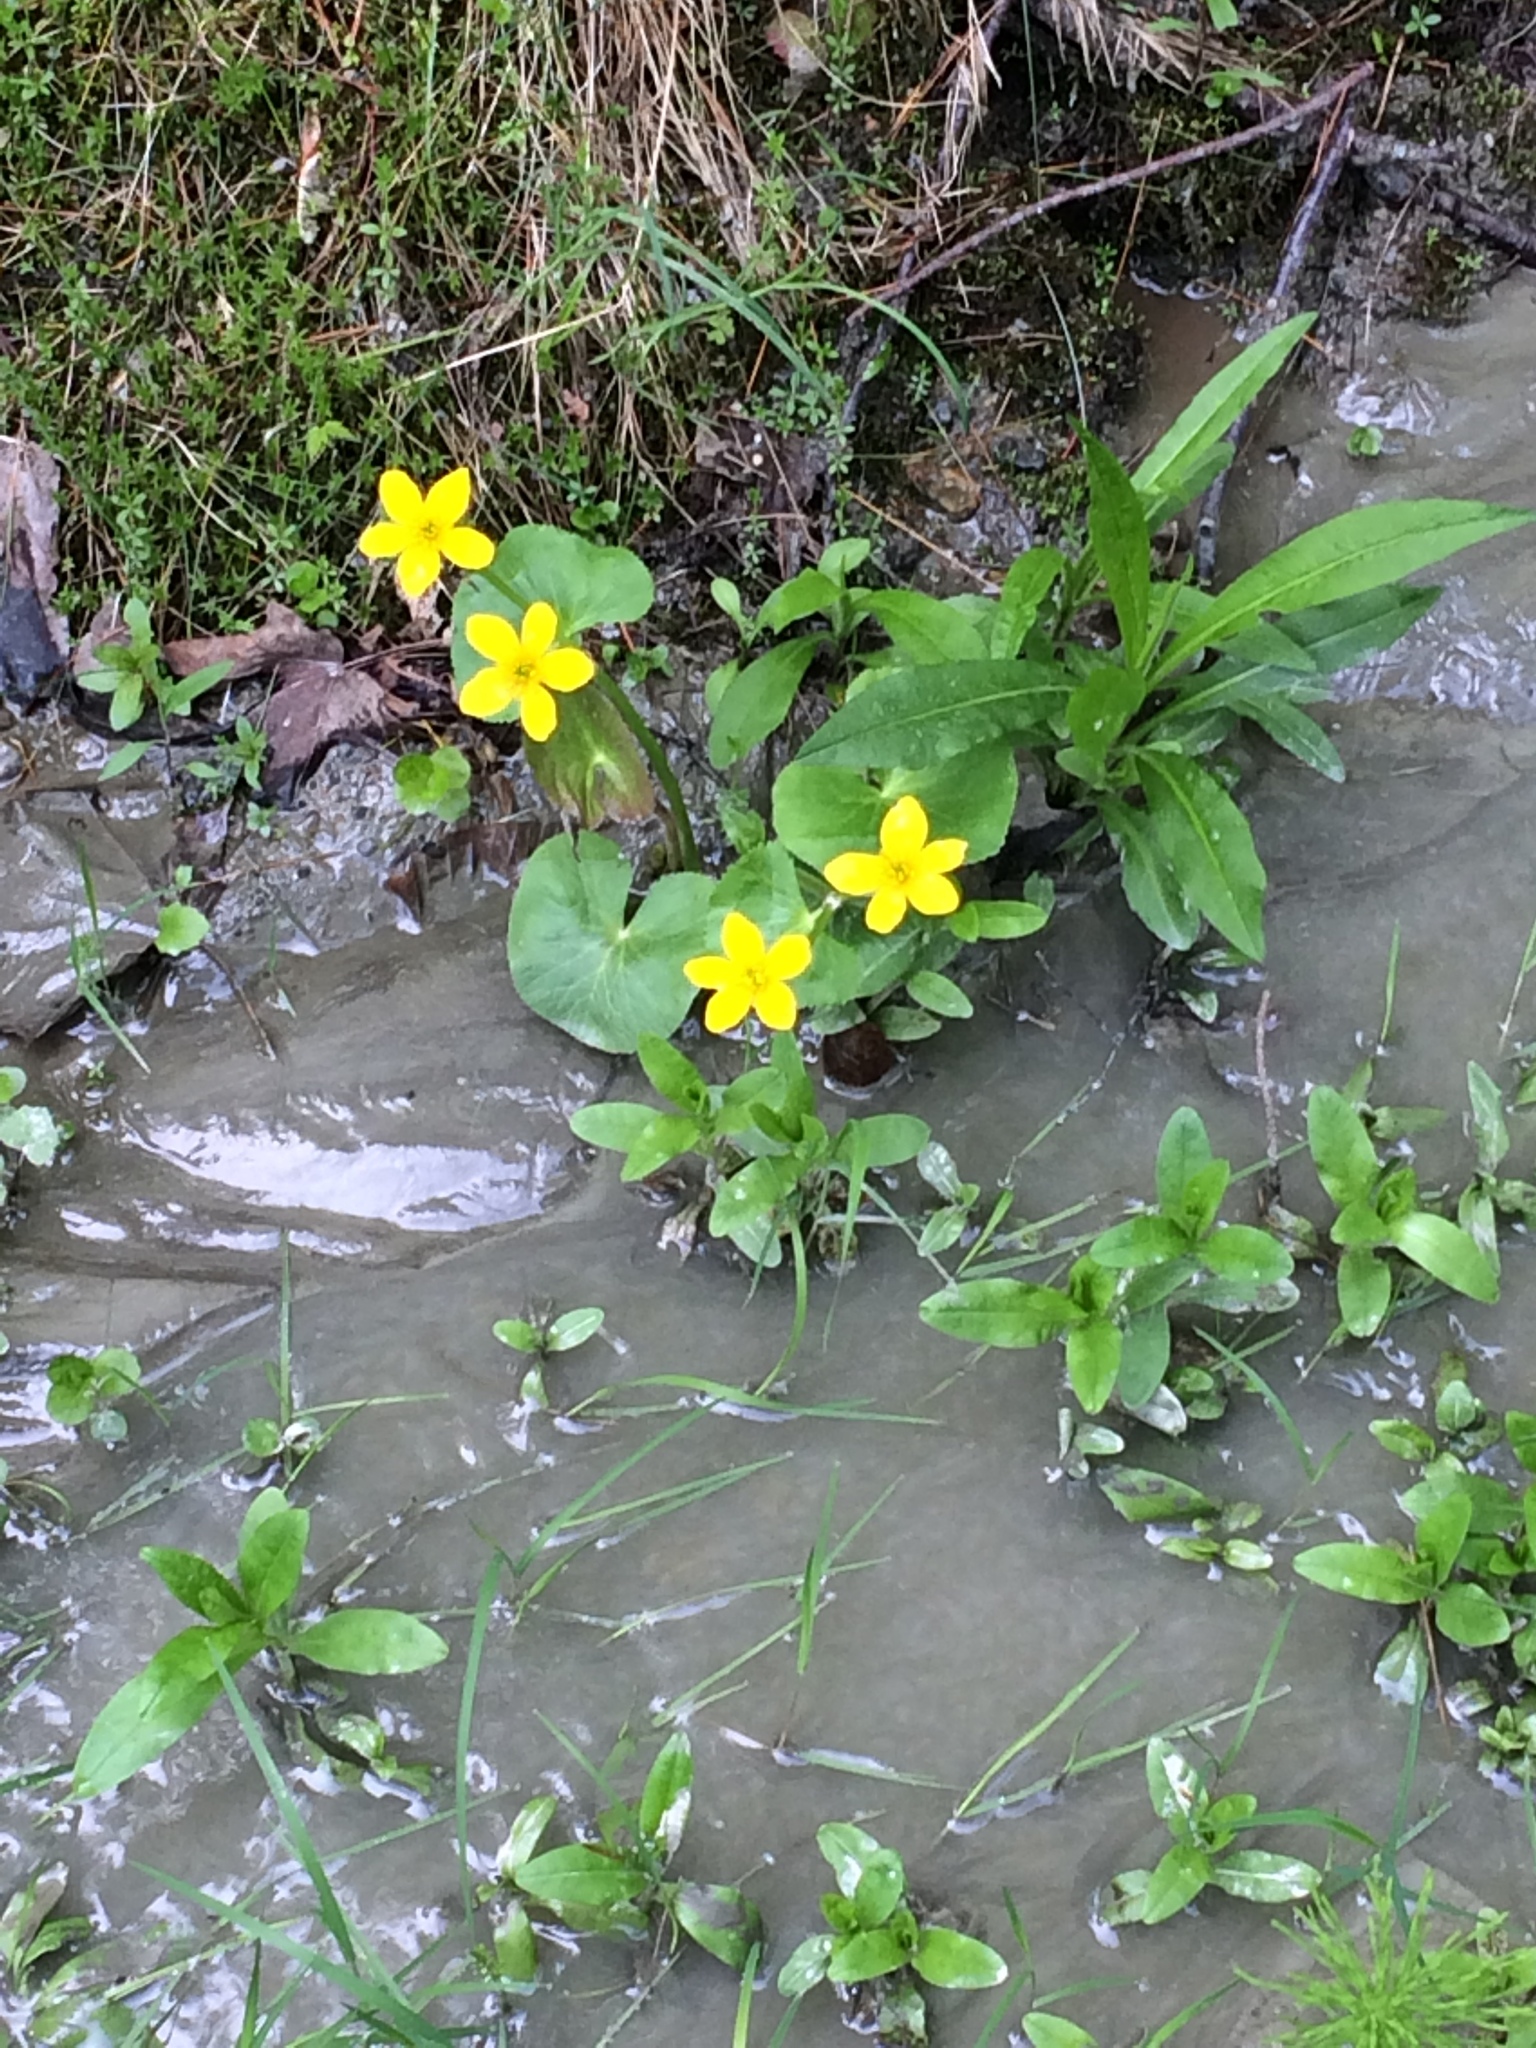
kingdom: Plantae
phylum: Tracheophyta
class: Magnoliopsida
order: Ranunculales
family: Ranunculaceae
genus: Caltha
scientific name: Caltha palustris
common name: Marsh marigold
